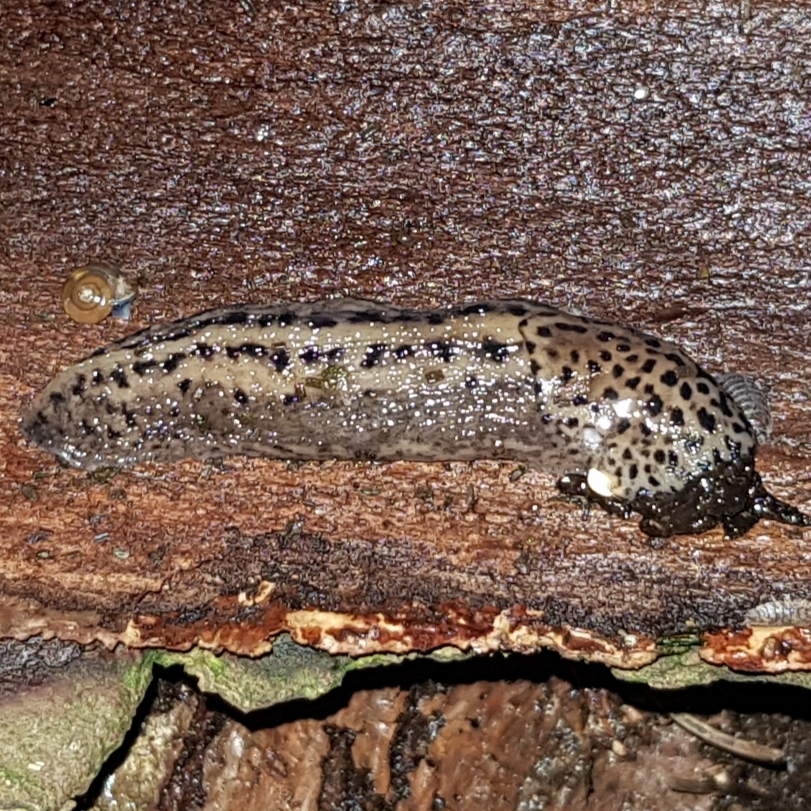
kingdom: Animalia
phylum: Mollusca
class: Gastropoda
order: Stylommatophora
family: Limacidae
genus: Limax
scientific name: Limax maximus
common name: Great grey slug
